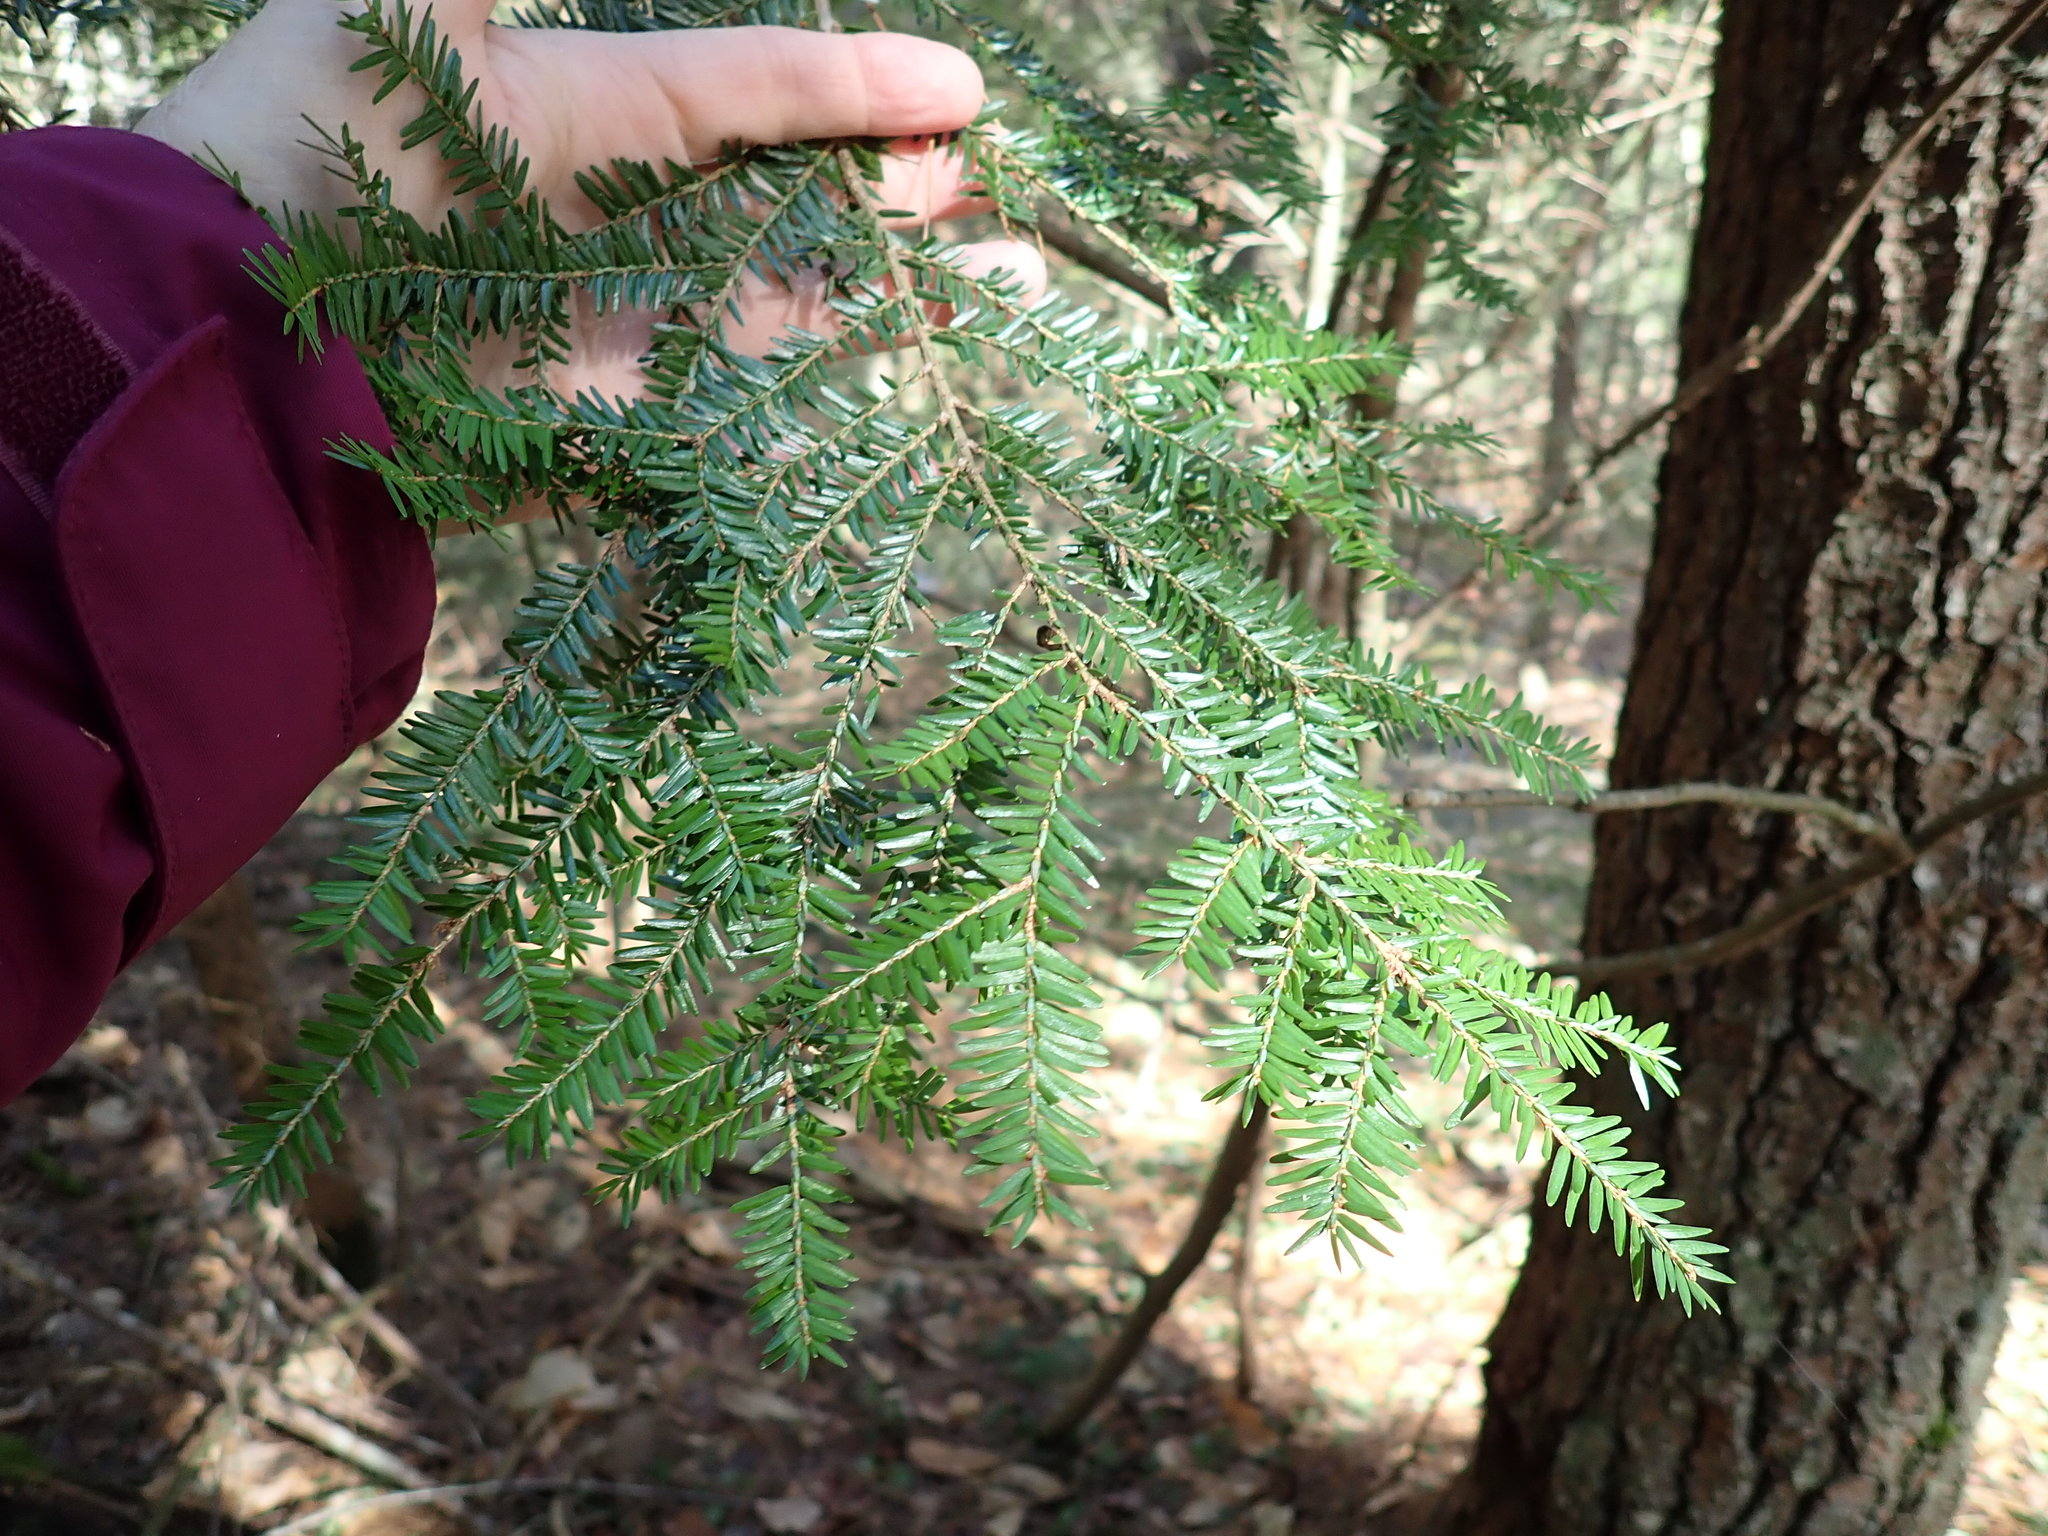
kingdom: Plantae
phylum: Tracheophyta
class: Pinopsida
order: Pinales
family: Pinaceae
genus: Tsuga
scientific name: Tsuga canadensis
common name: Eastern hemlock
